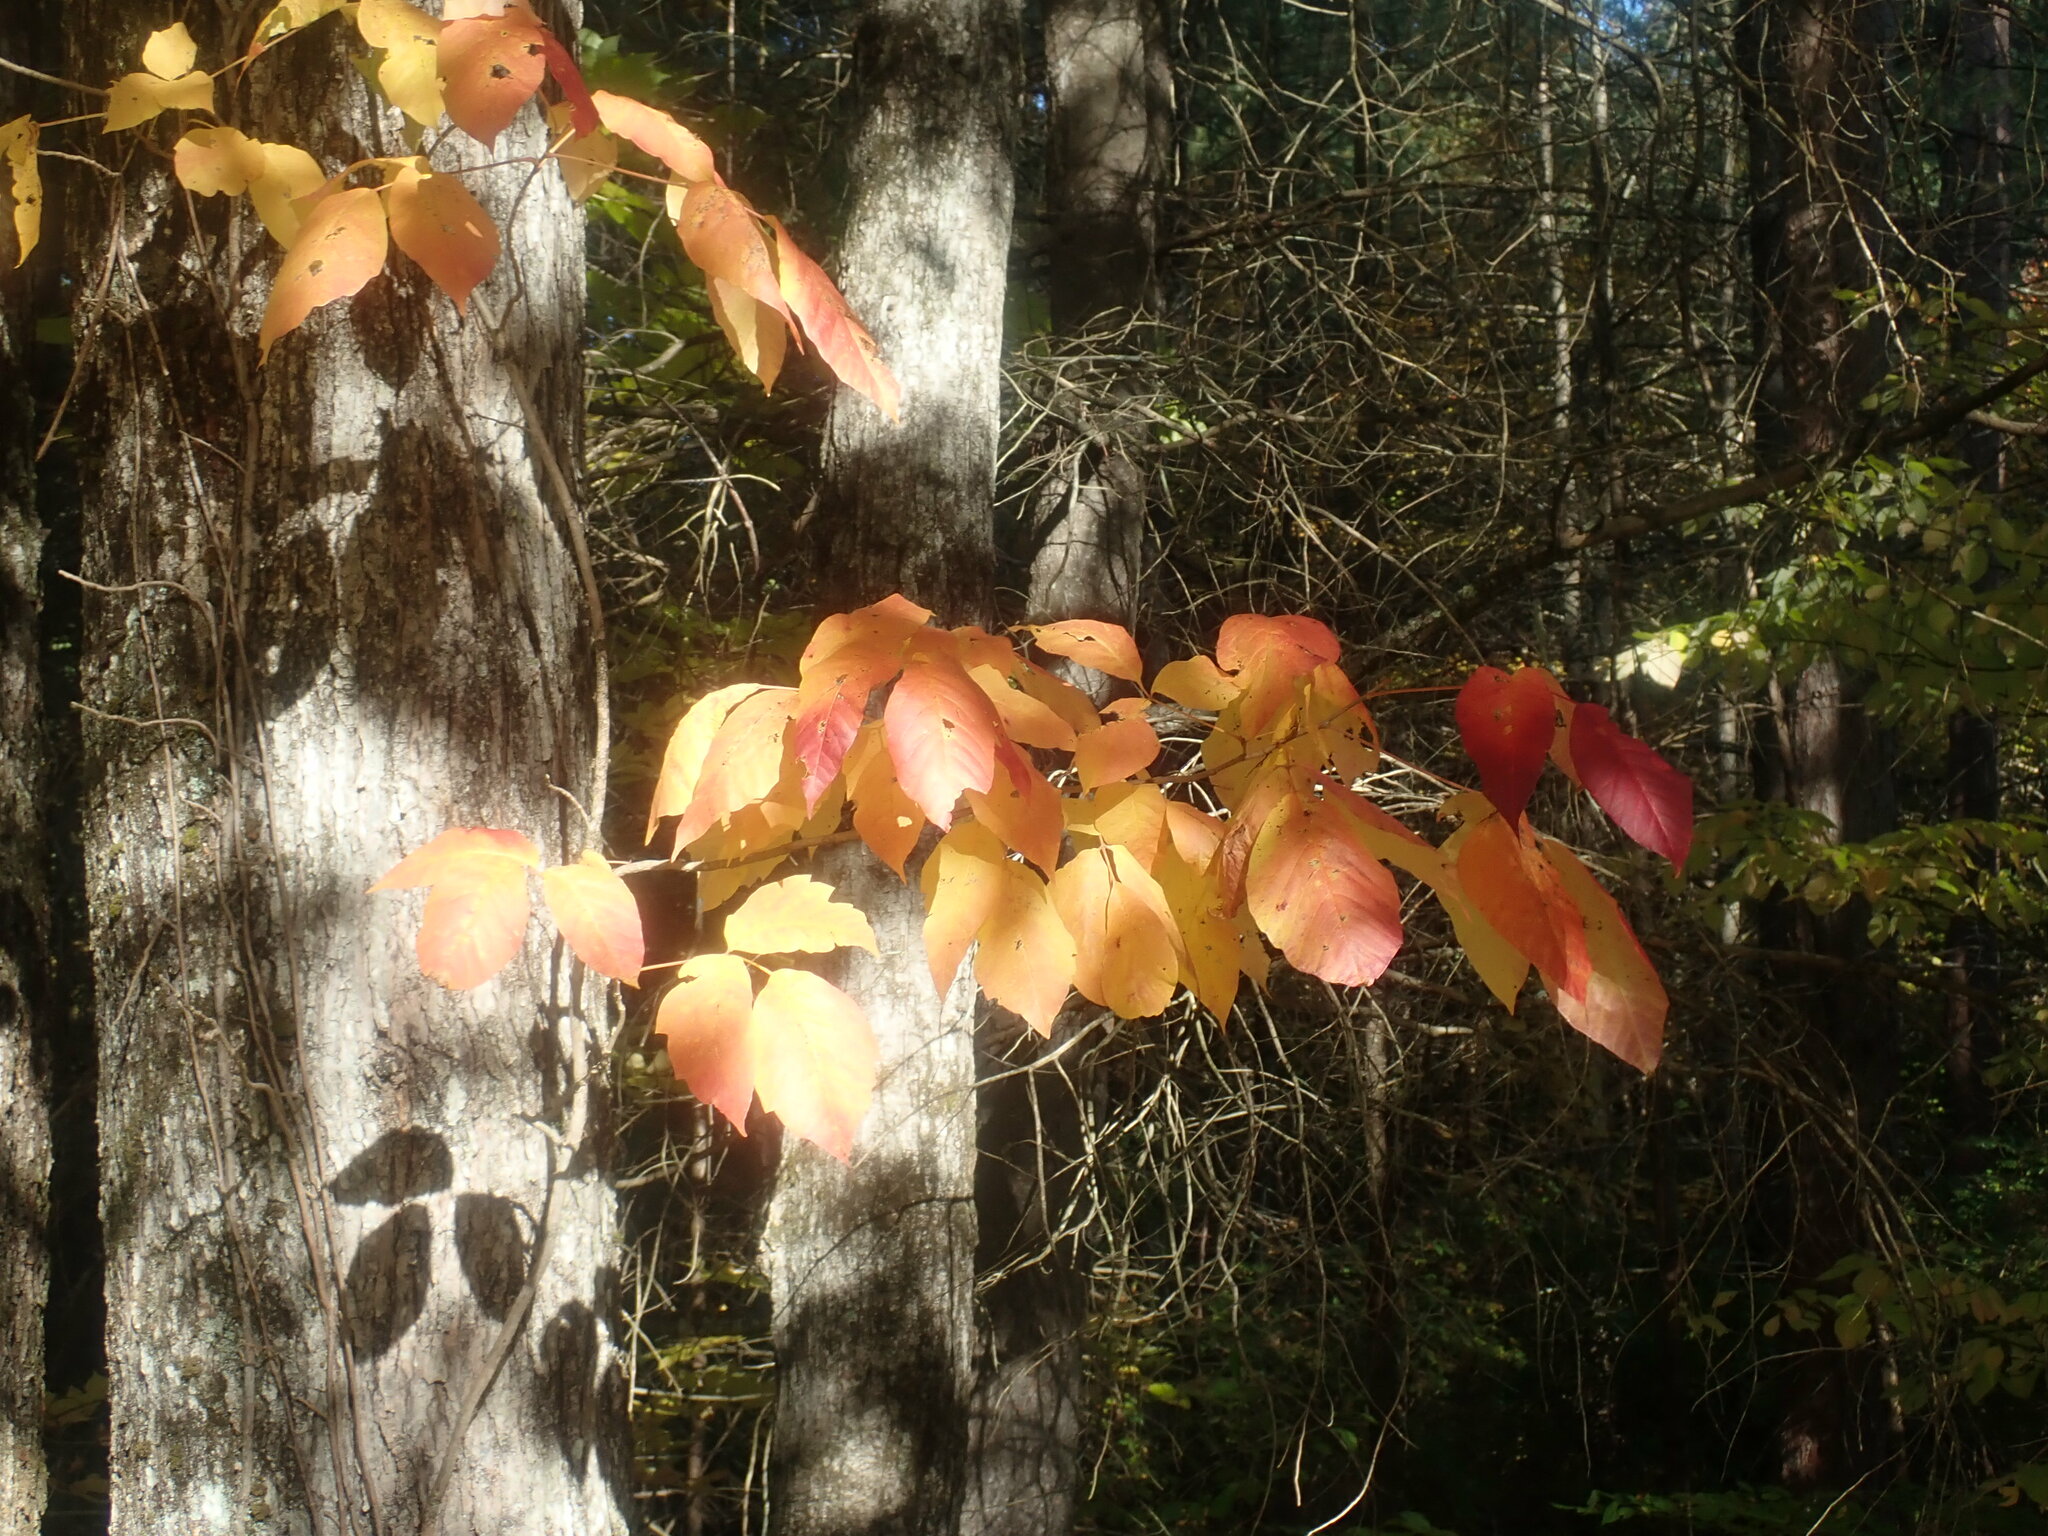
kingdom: Plantae
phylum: Tracheophyta
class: Magnoliopsida
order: Sapindales
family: Anacardiaceae
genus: Toxicodendron
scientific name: Toxicodendron radicans
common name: Poison ivy
